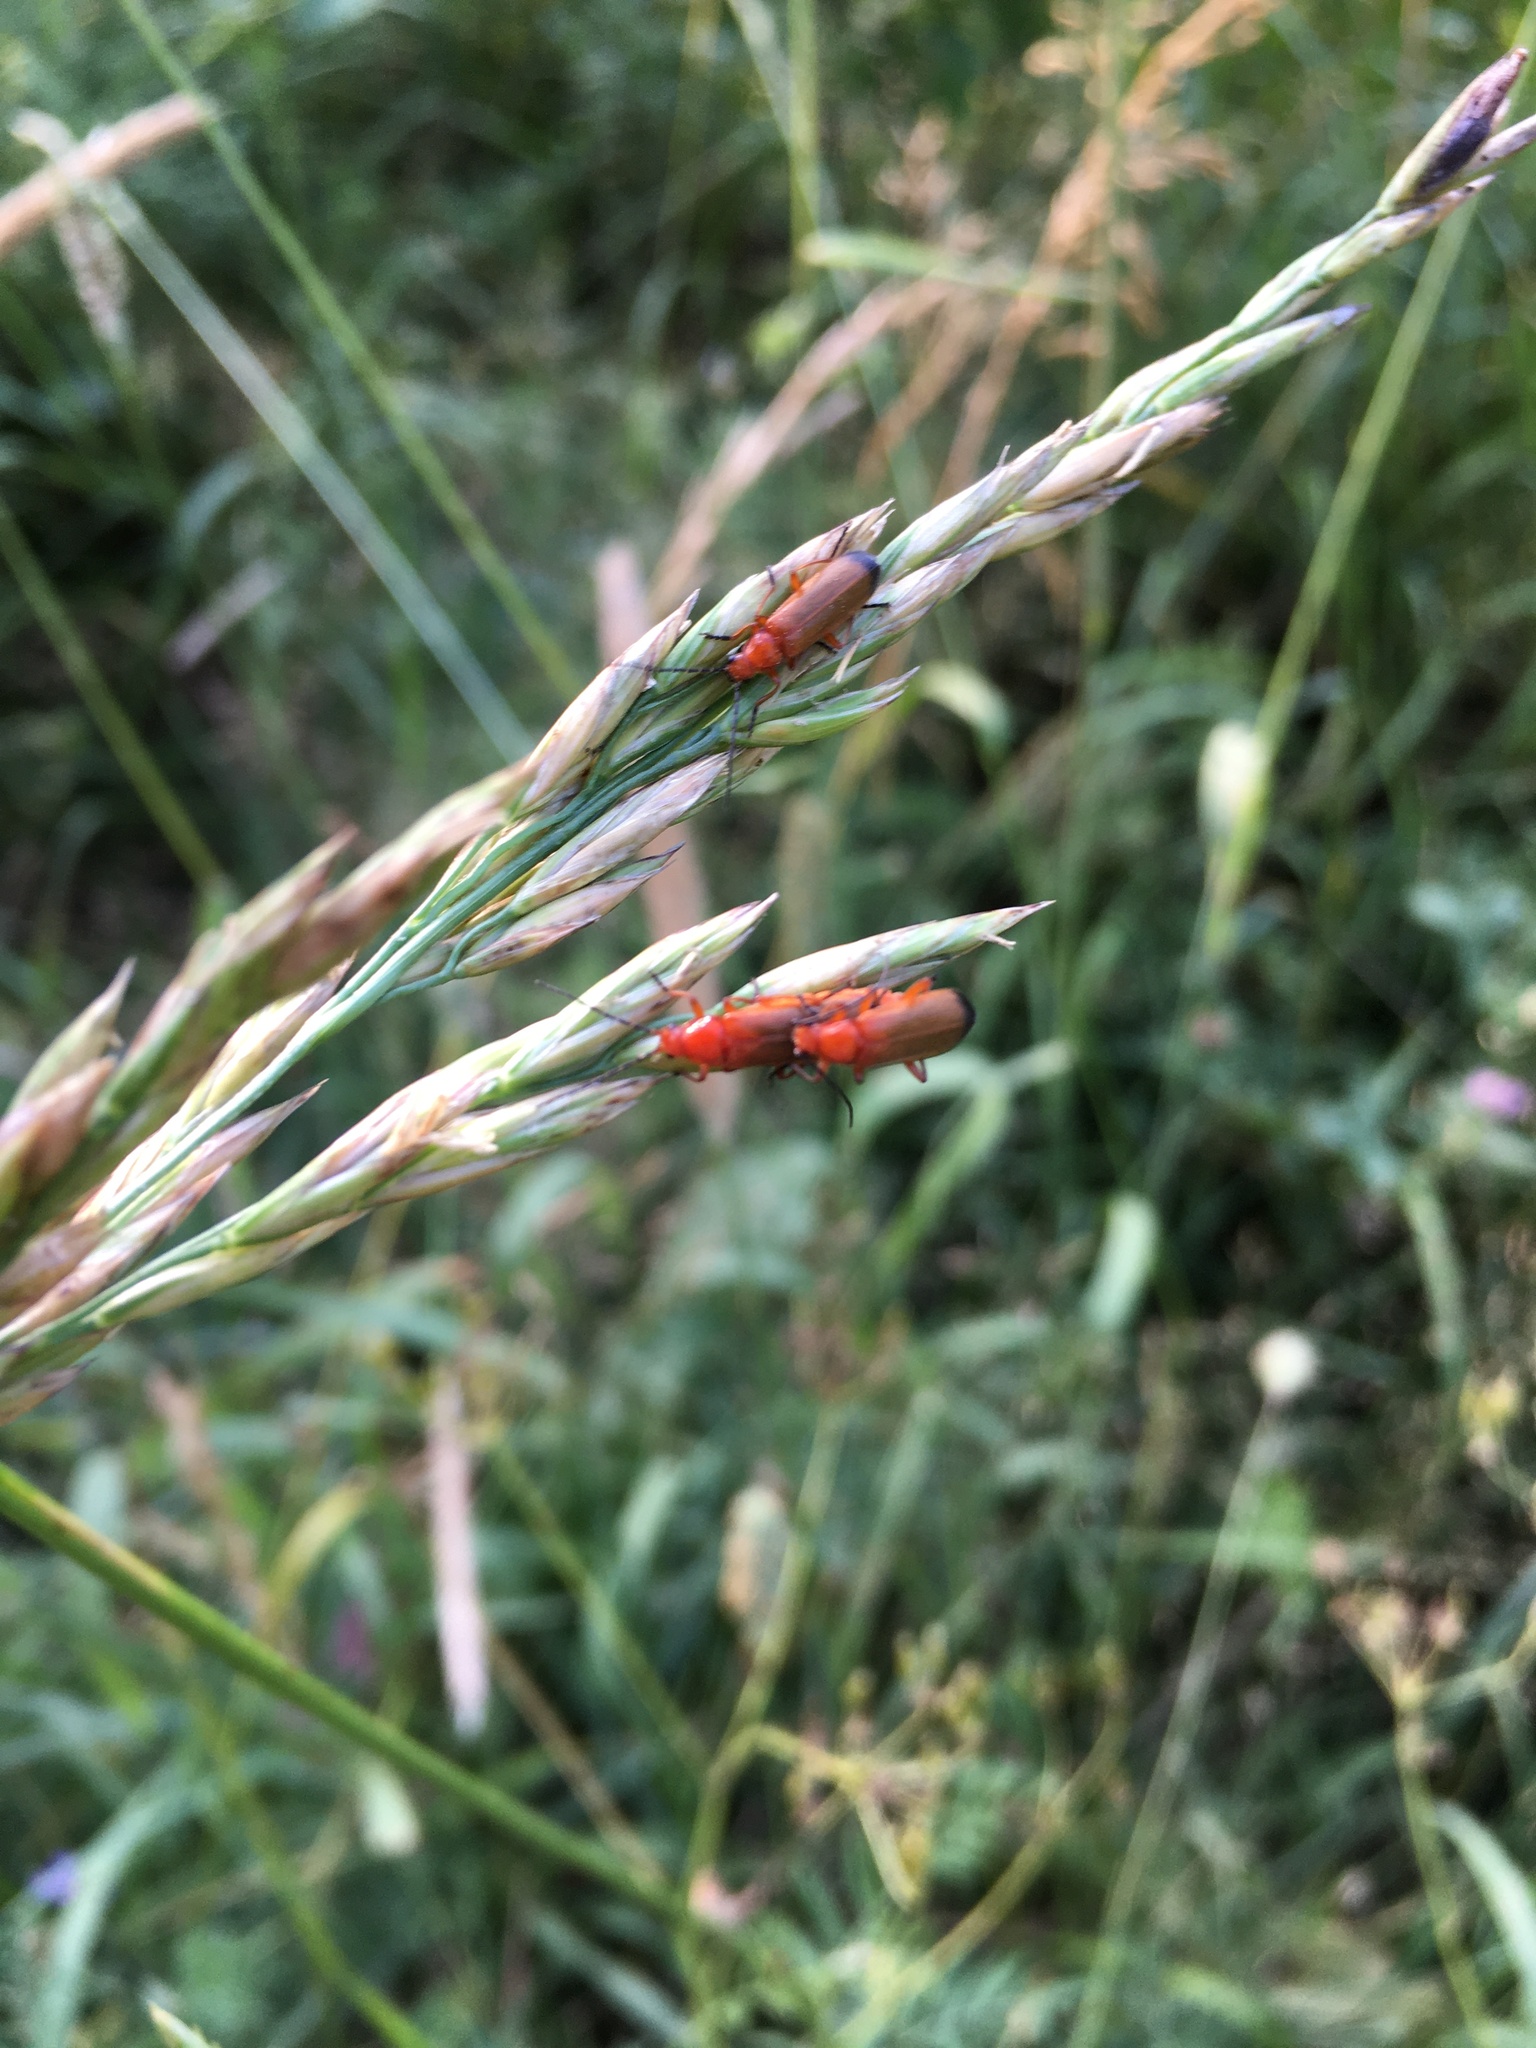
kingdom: Animalia
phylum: Arthropoda
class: Insecta
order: Coleoptera
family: Cantharidae
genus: Rhagonycha
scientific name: Rhagonycha fulva
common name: Common red soldier beetle
